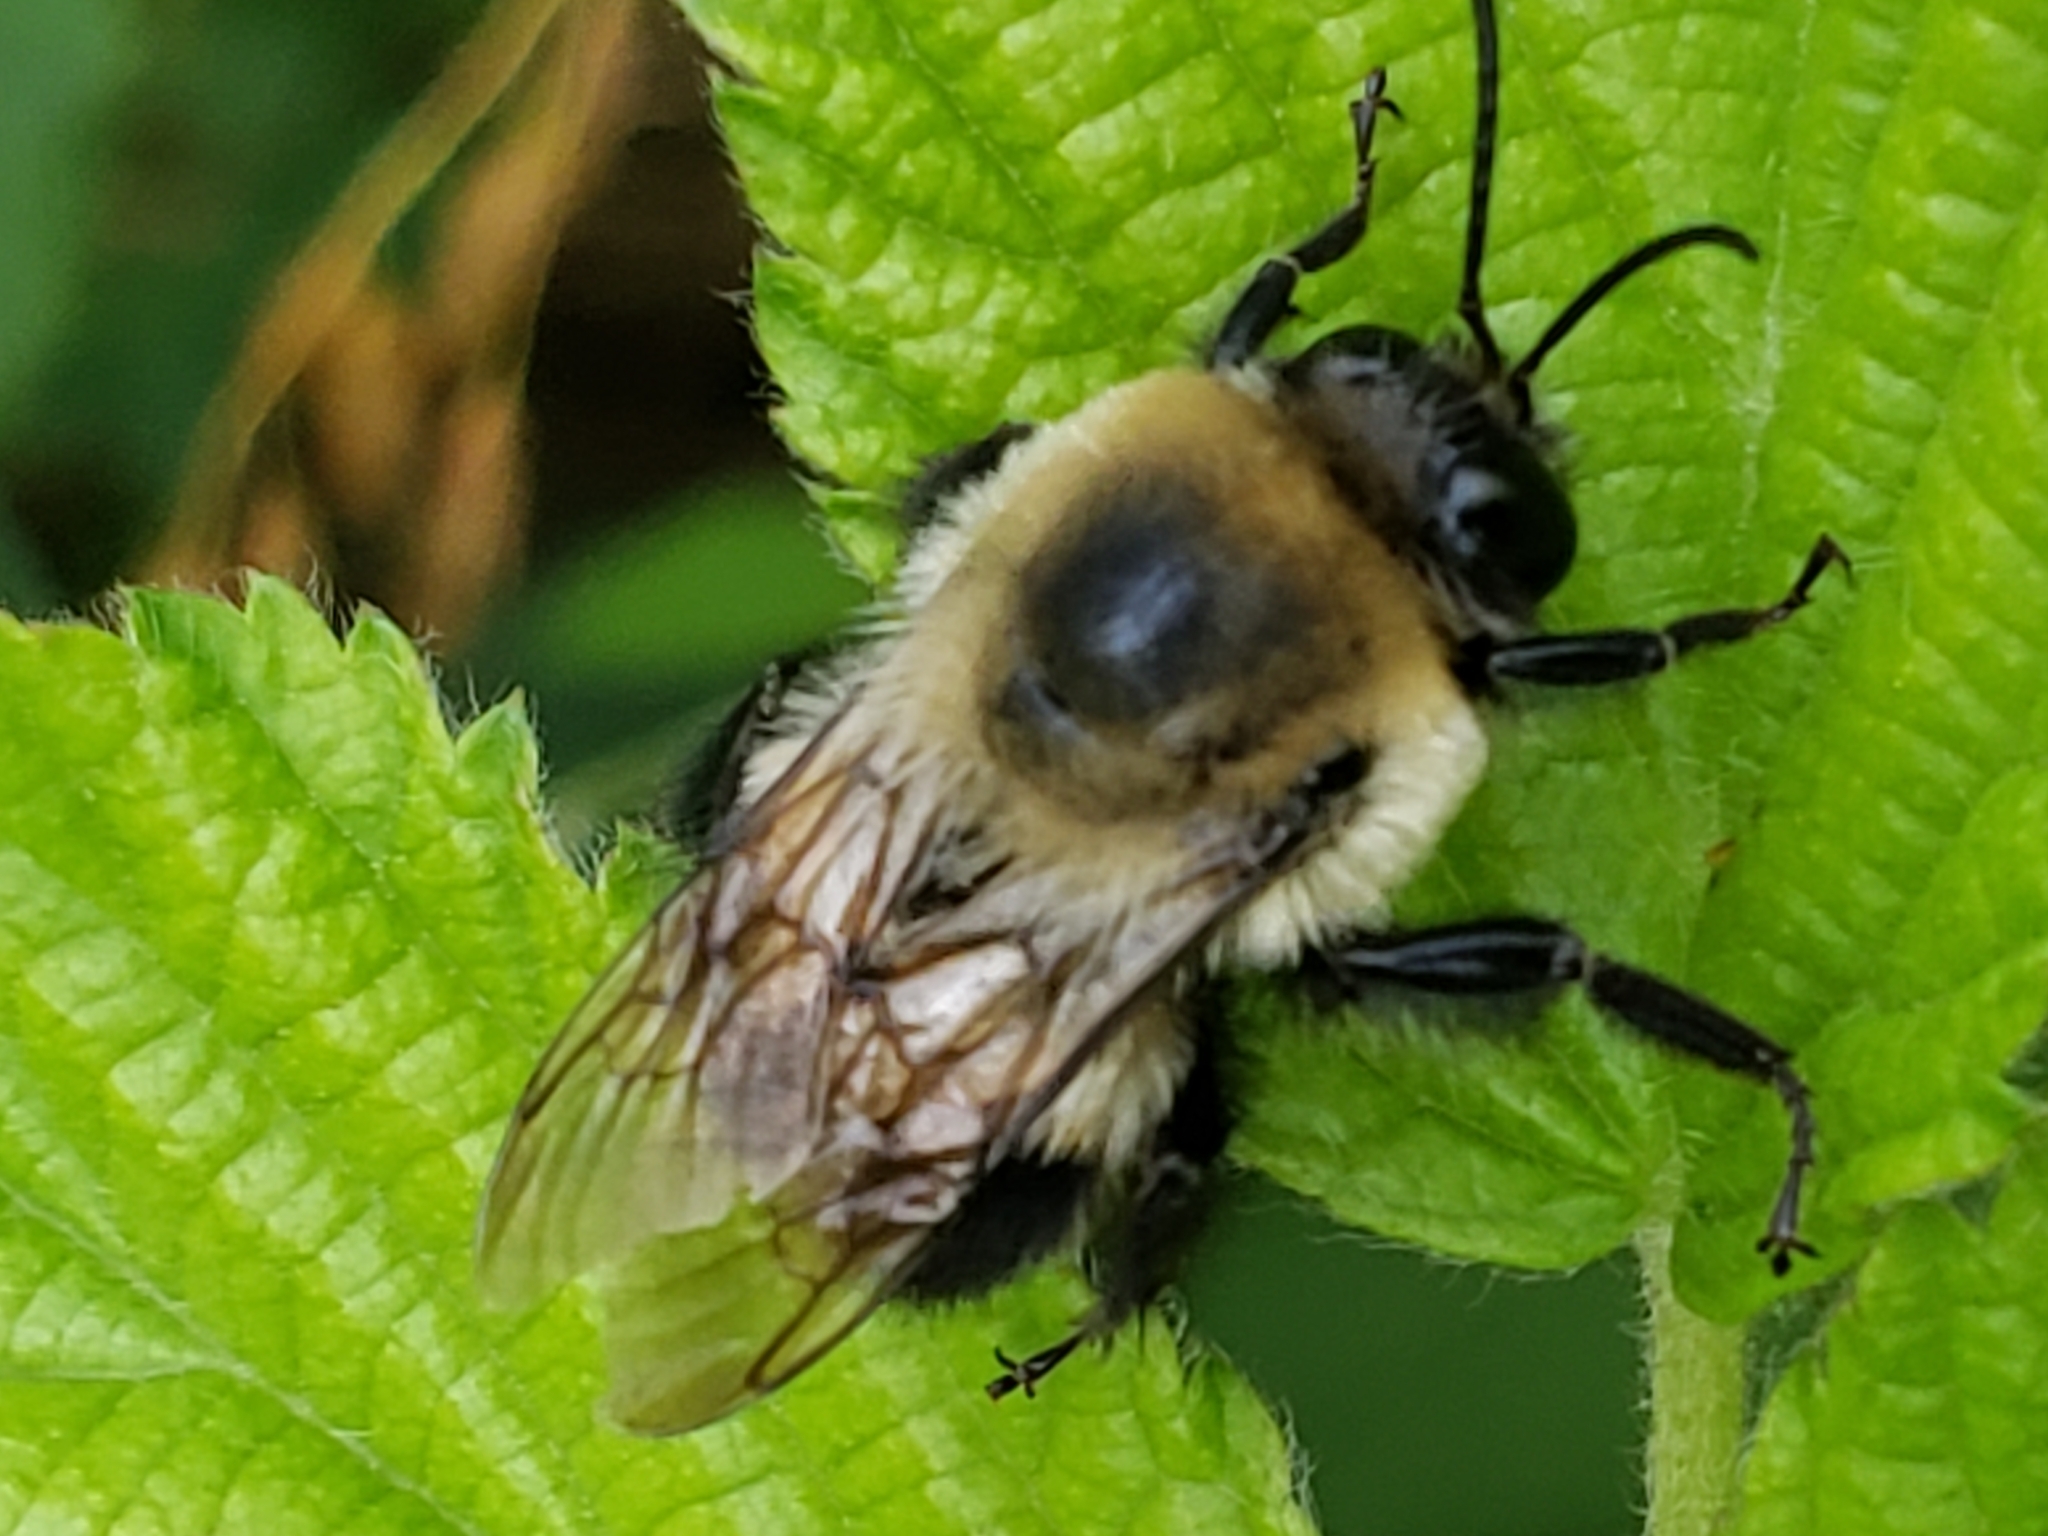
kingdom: Animalia
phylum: Arthropoda
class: Insecta
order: Hymenoptera
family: Apidae
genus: Bombus
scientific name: Bombus griseocollis
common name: Brown-belted bumble bee
